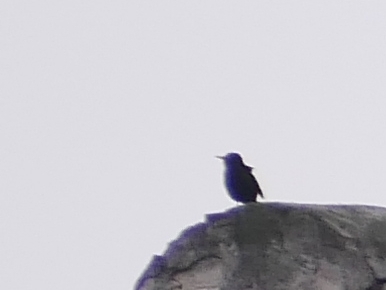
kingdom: Animalia
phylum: Chordata
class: Aves
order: Passeriformes
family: Sturnidae
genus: Sturnus
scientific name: Sturnus vulgaris
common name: Common starling
